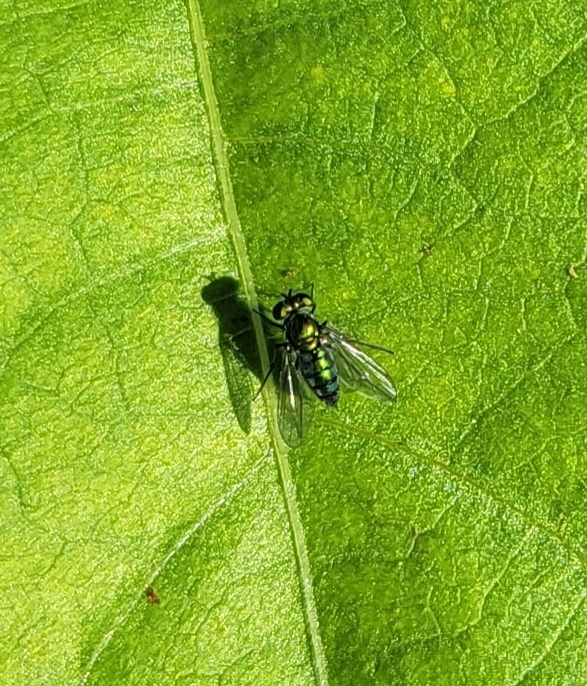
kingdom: Animalia
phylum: Arthropoda
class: Insecta
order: Diptera
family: Dolichopodidae
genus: Condylostylus
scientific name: Condylostylus longicornis
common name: Long-legged fly
